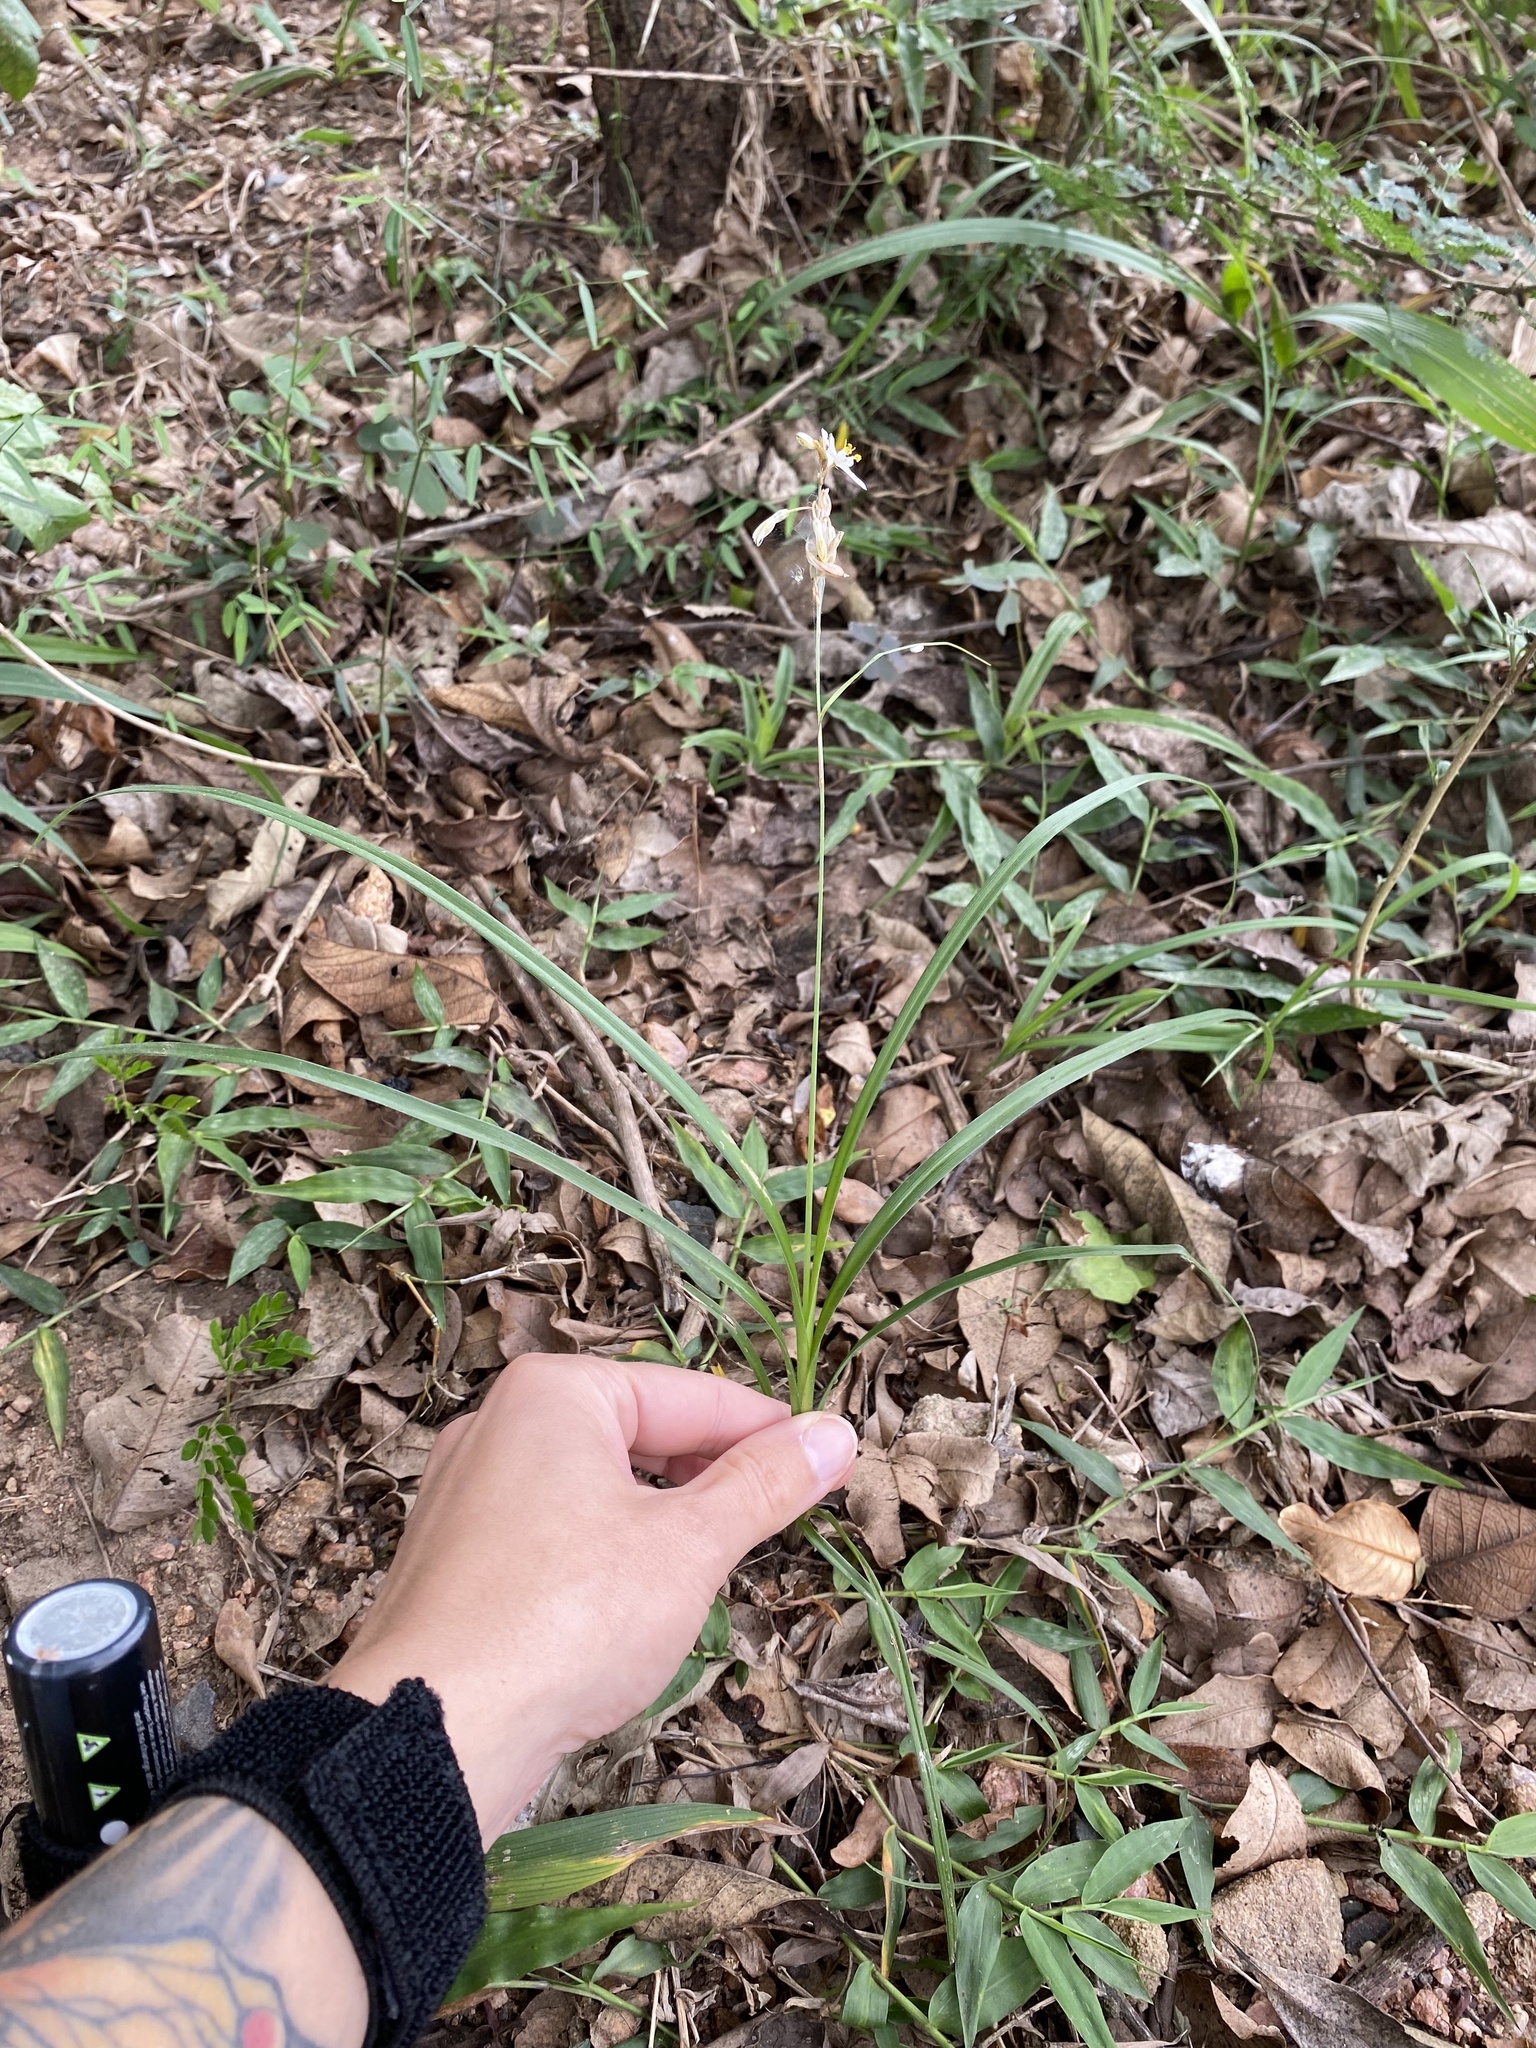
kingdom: Plantae
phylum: Tracheophyta
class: Liliopsida
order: Asparagales
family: Asparagaceae
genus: Chlorophytum
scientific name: Chlorophytum saundersiae
